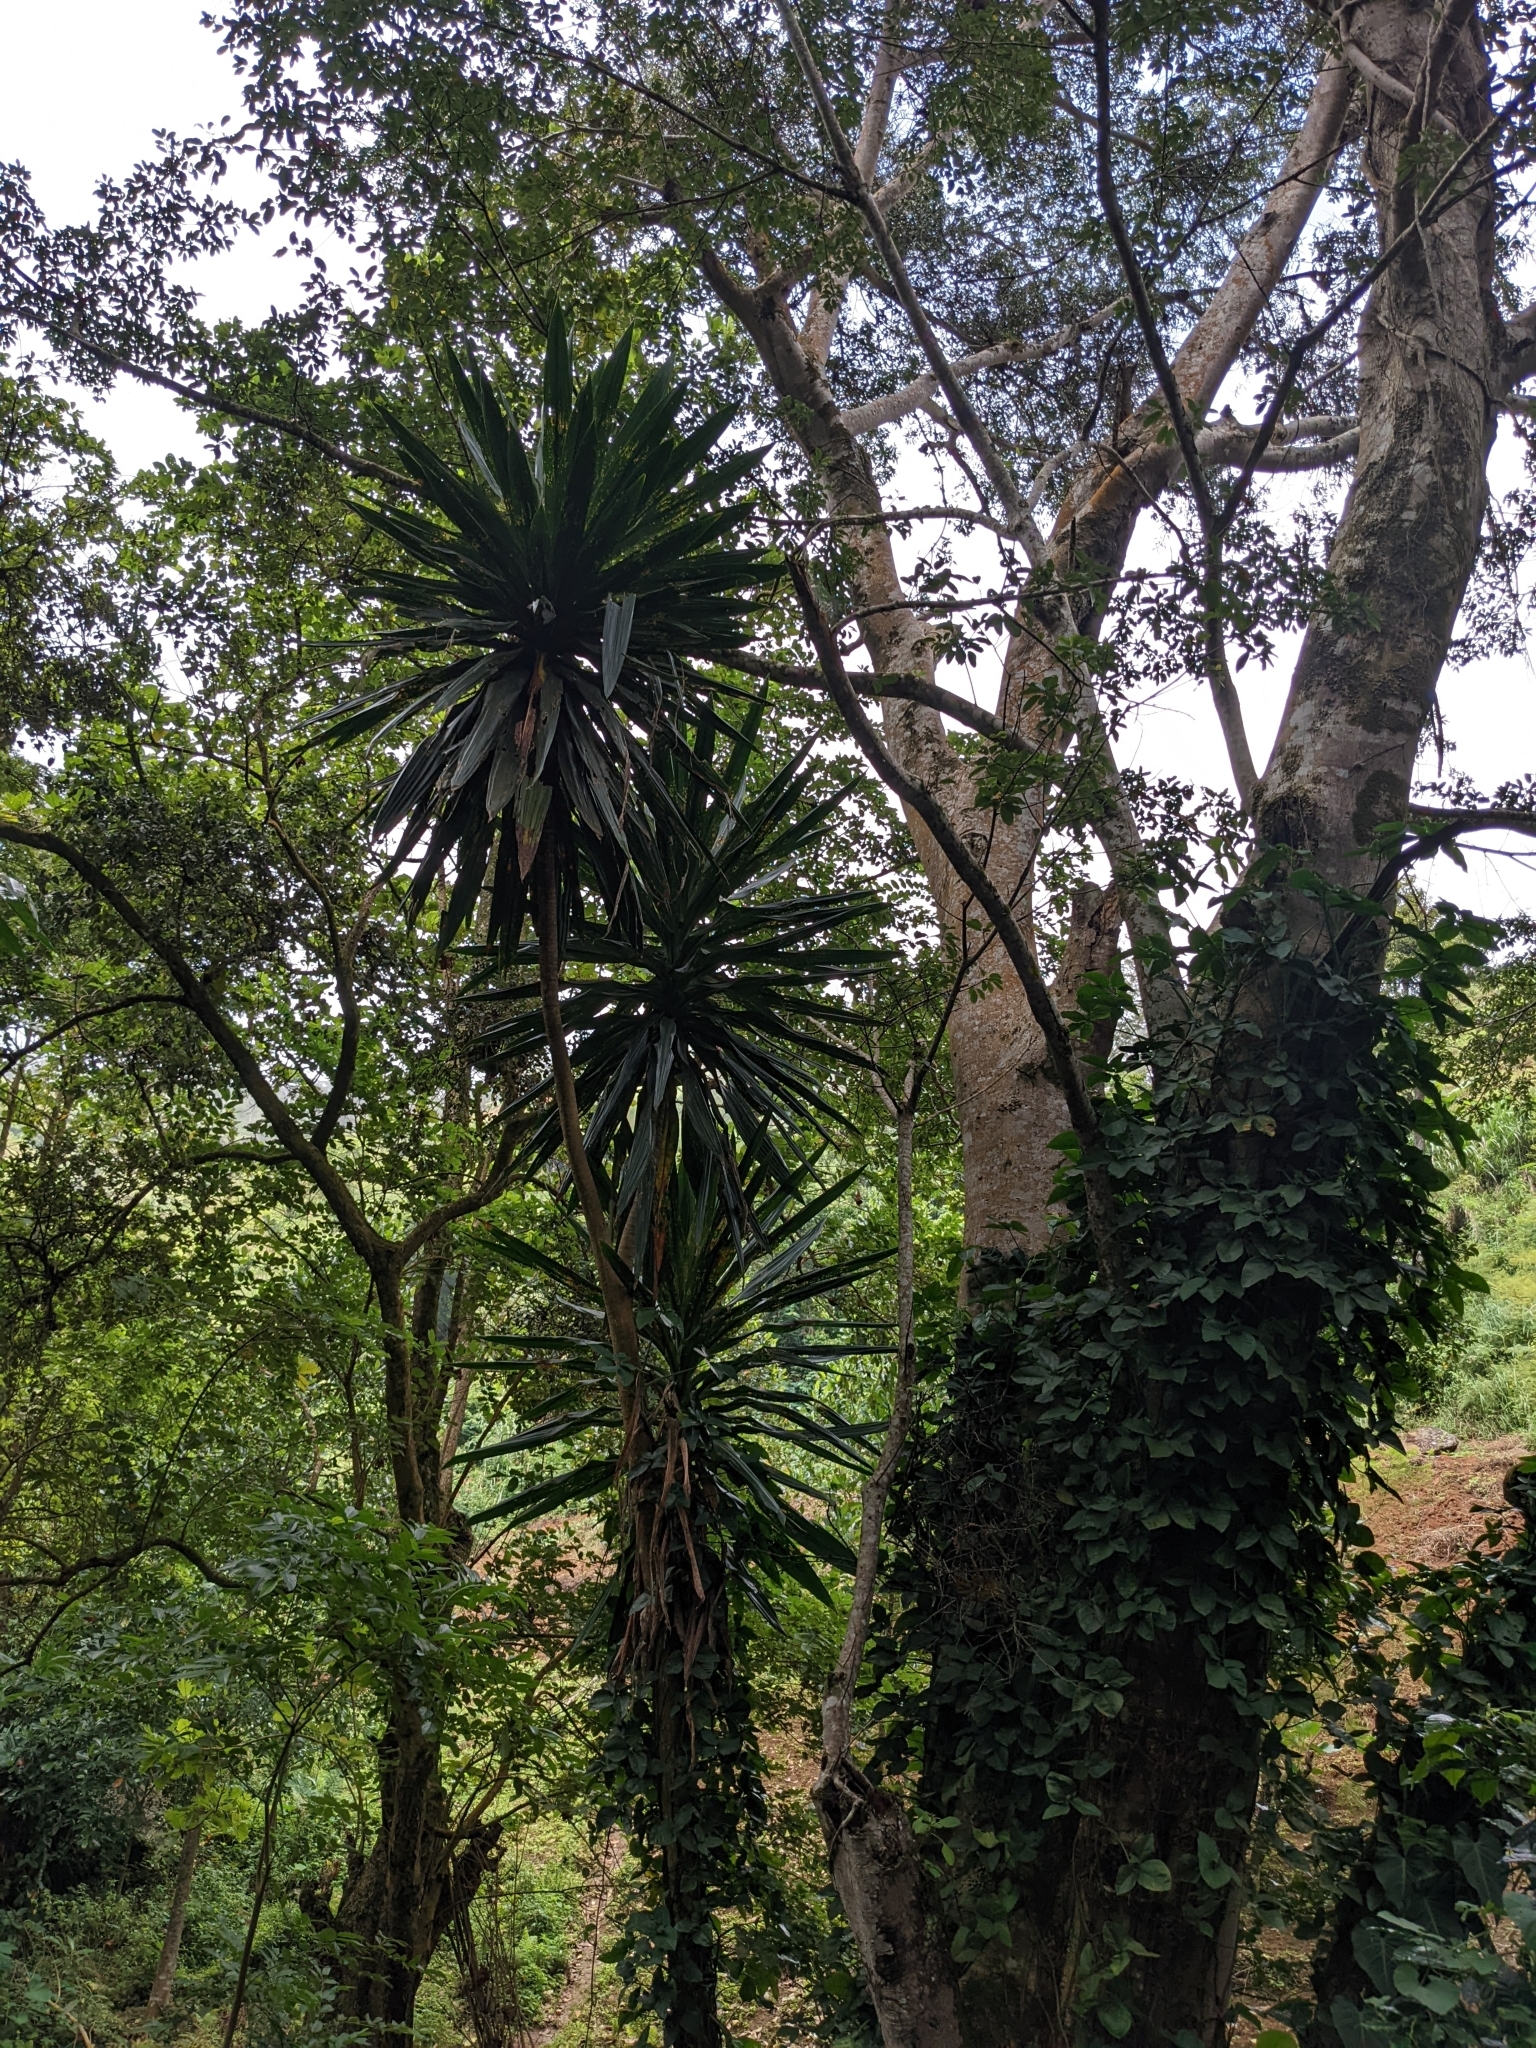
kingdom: Plantae
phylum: Tracheophyta
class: Liliopsida
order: Asparagales
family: Asparagaceae
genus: Dracaena
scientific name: Dracaena steudneri
